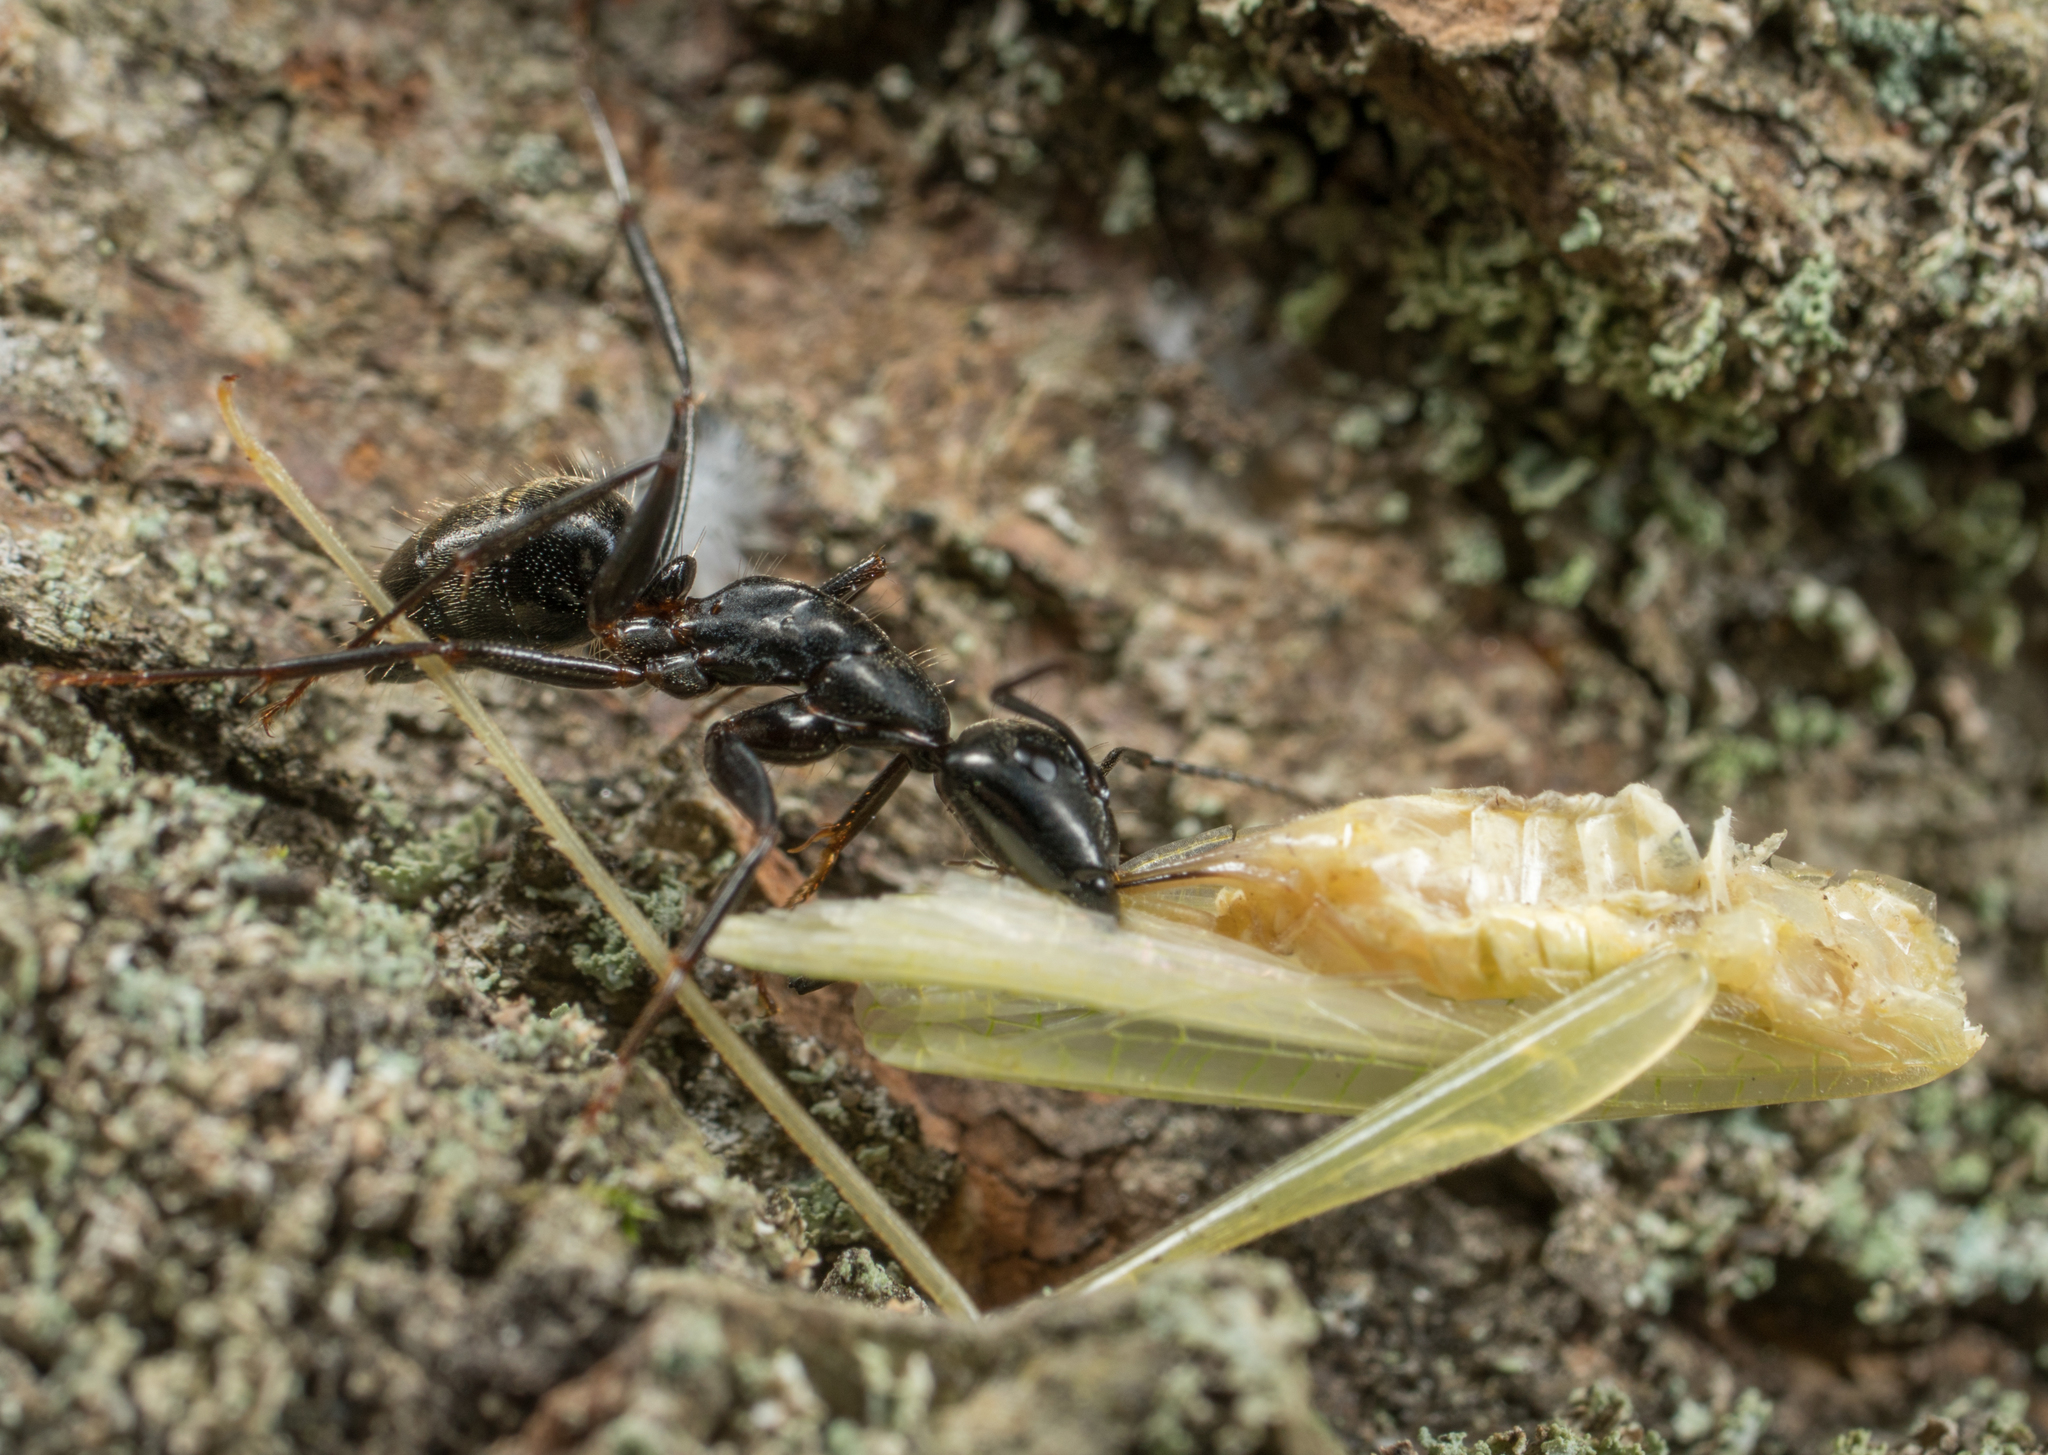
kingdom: Animalia
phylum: Arthropoda
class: Insecta
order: Hymenoptera
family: Formicidae
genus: Camponotus
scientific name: Camponotus pennsylvanicus
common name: Black carpenter ant
